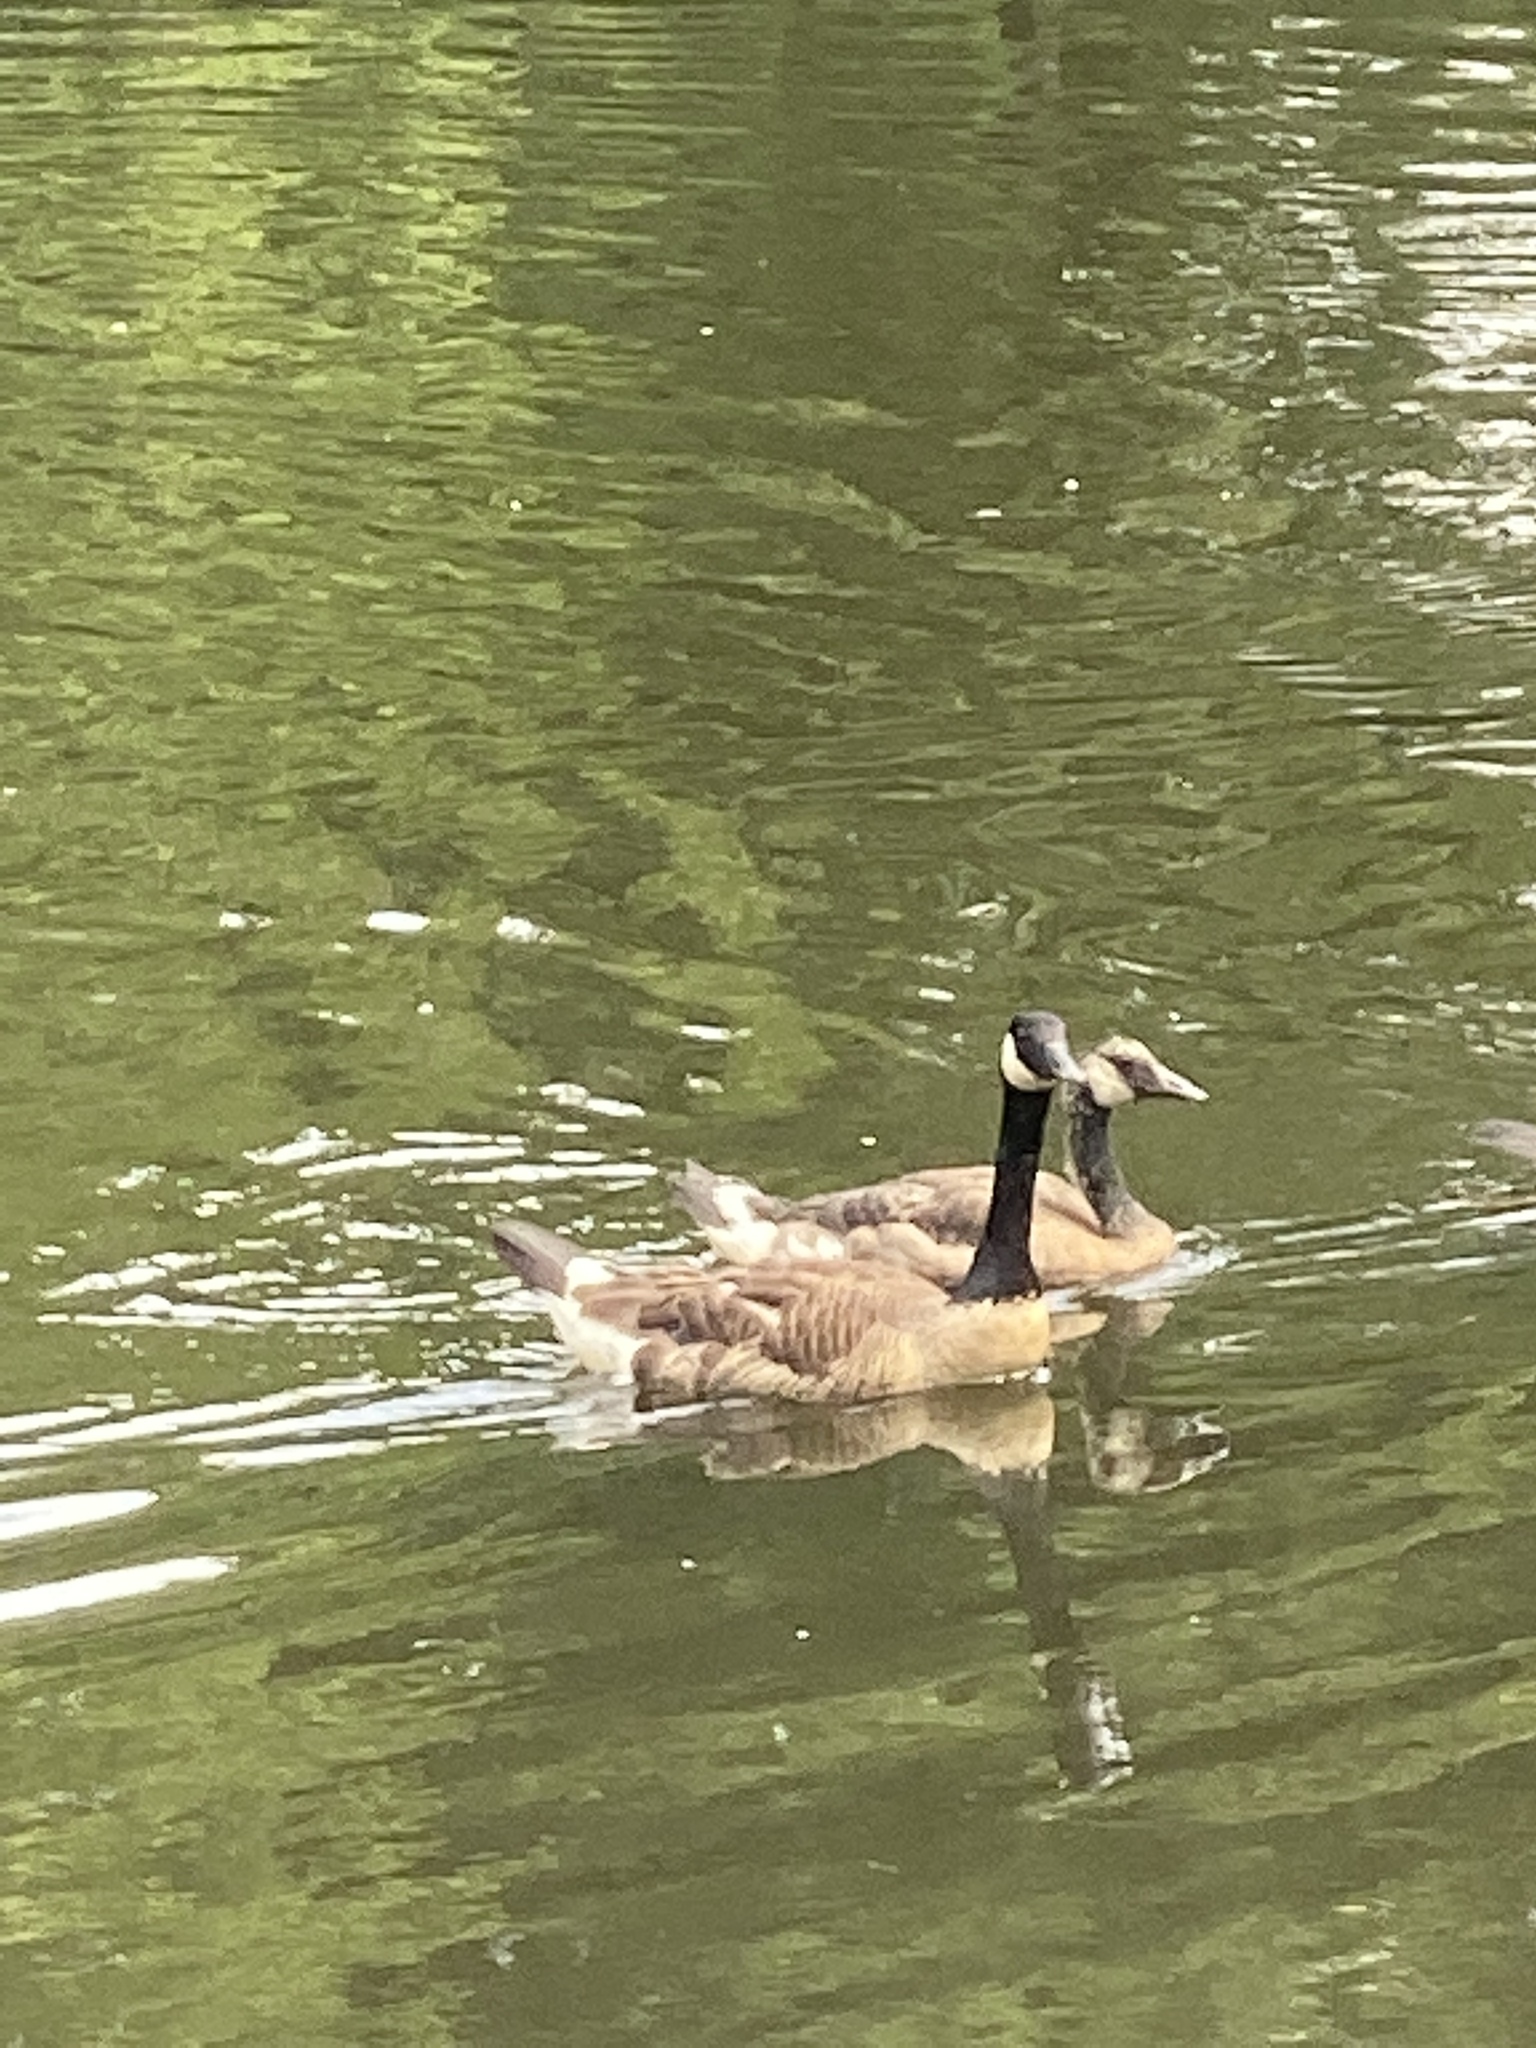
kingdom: Animalia
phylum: Chordata
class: Aves
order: Anseriformes
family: Anatidae
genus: Branta
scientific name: Branta canadensis
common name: Canada goose
